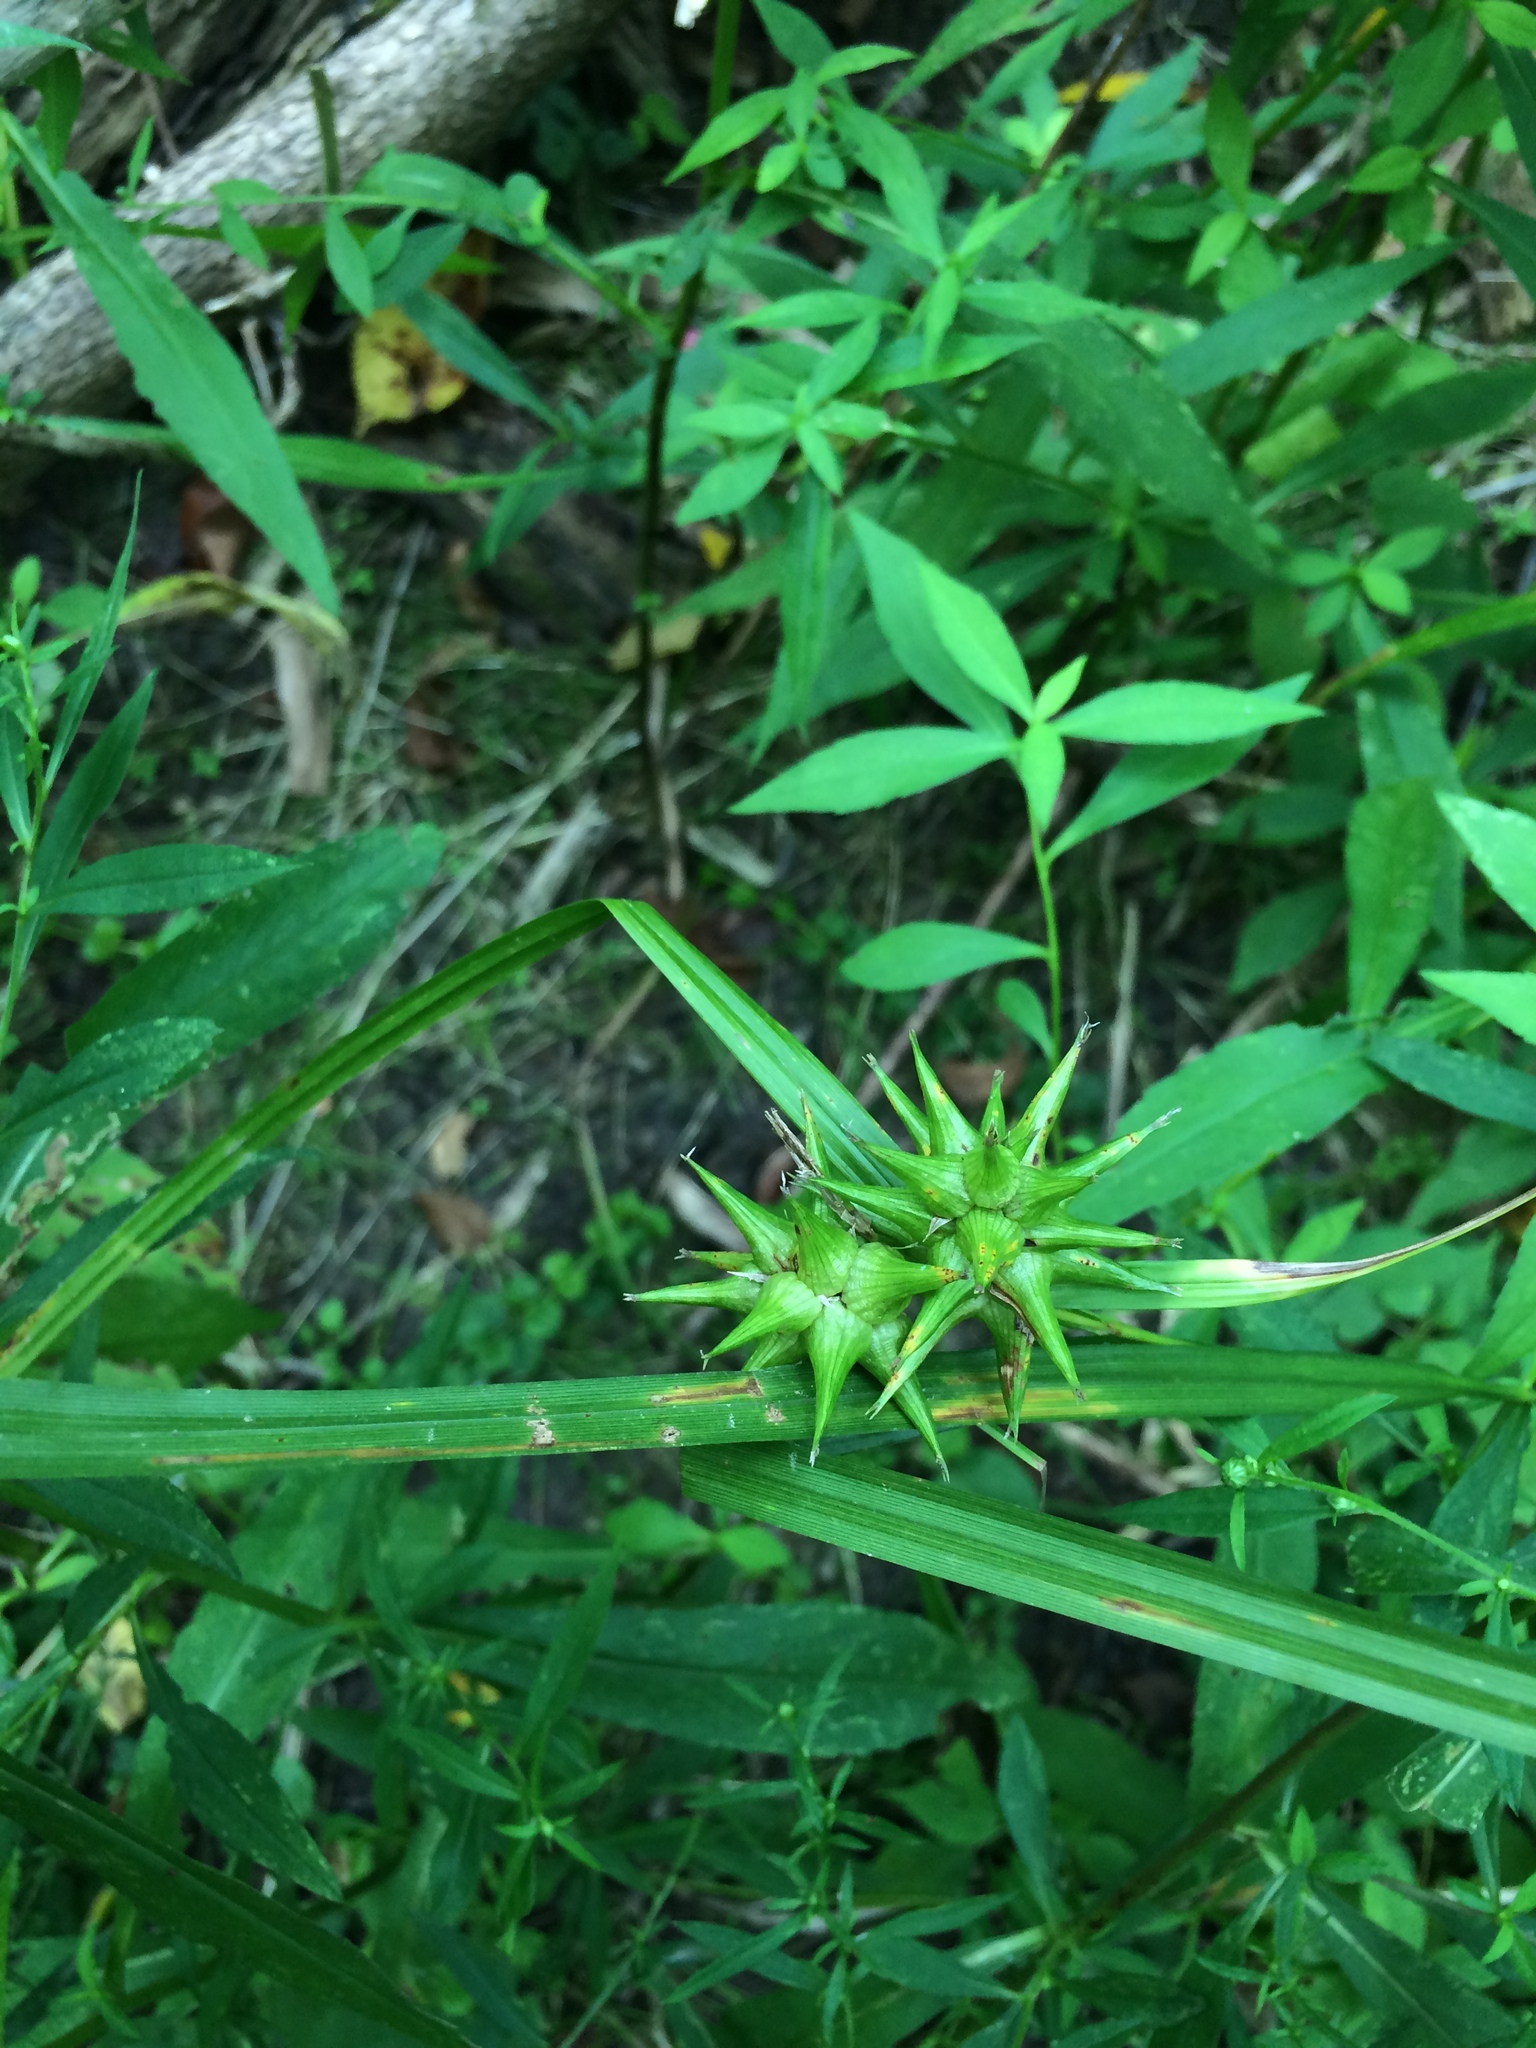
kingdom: Plantae
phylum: Tracheophyta
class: Liliopsida
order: Poales
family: Cyperaceae
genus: Carex
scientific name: Carex grayi
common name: Asa gray's sedge
